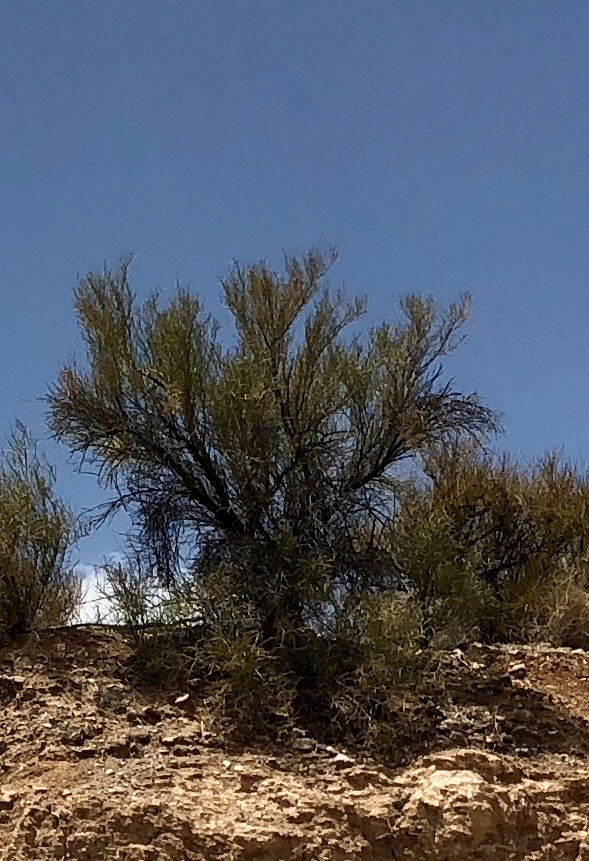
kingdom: Plantae
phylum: Tracheophyta
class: Magnoliopsida
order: Celastrales
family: Celastraceae
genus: Canotia
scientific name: Canotia holacantha
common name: Crucifixion thorns
